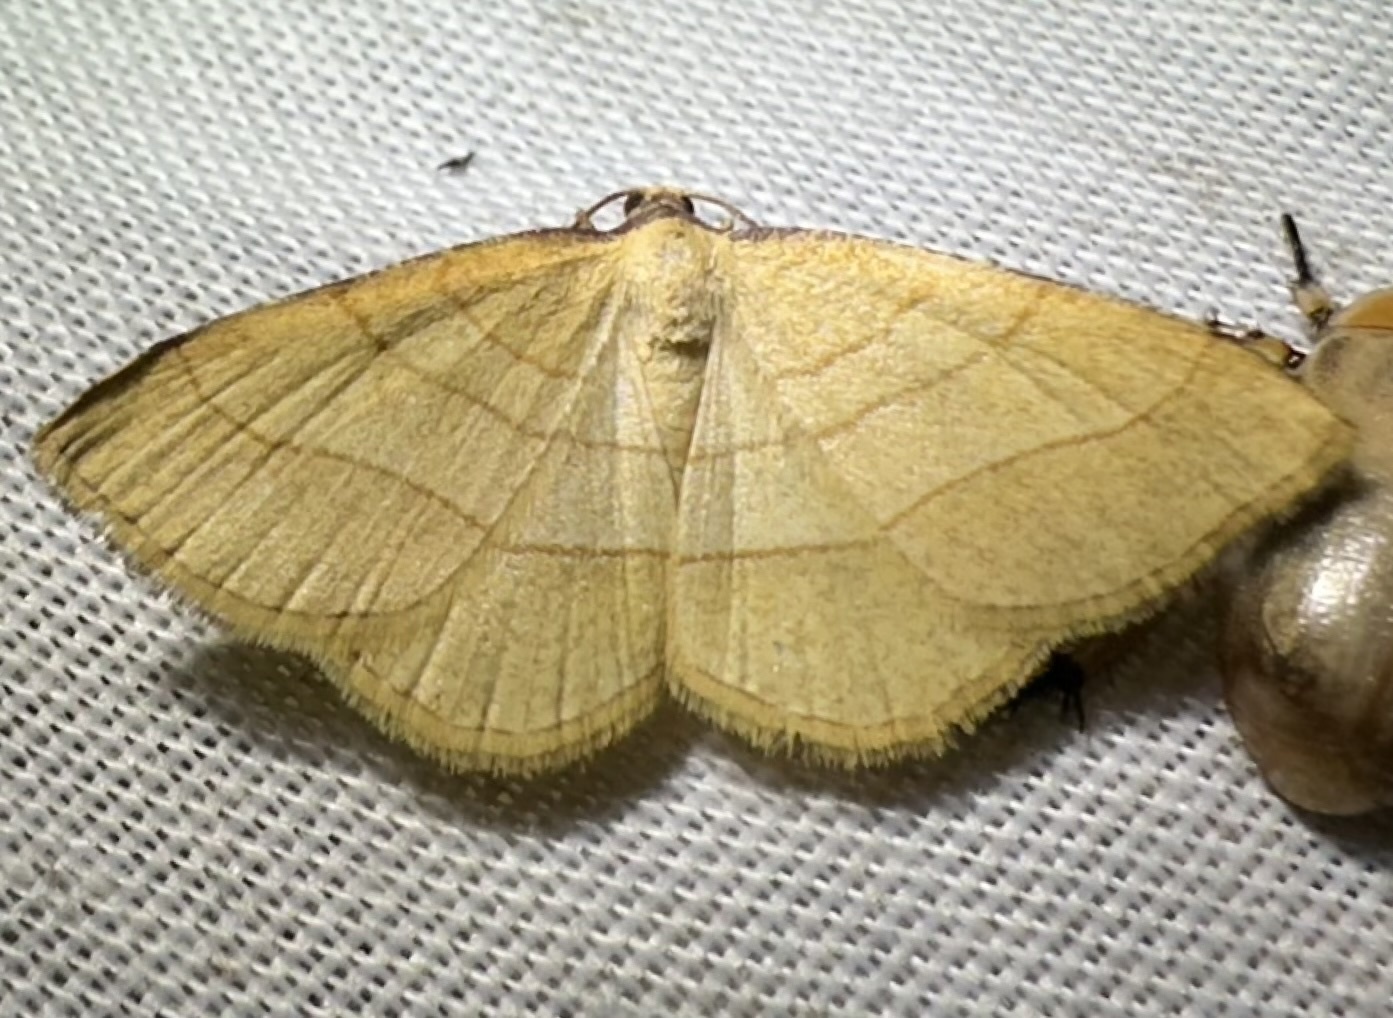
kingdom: Animalia
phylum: Arthropoda
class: Insecta
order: Lepidoptera
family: Geometridae
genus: Plateoplia
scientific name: Plateoplia acrobelia
